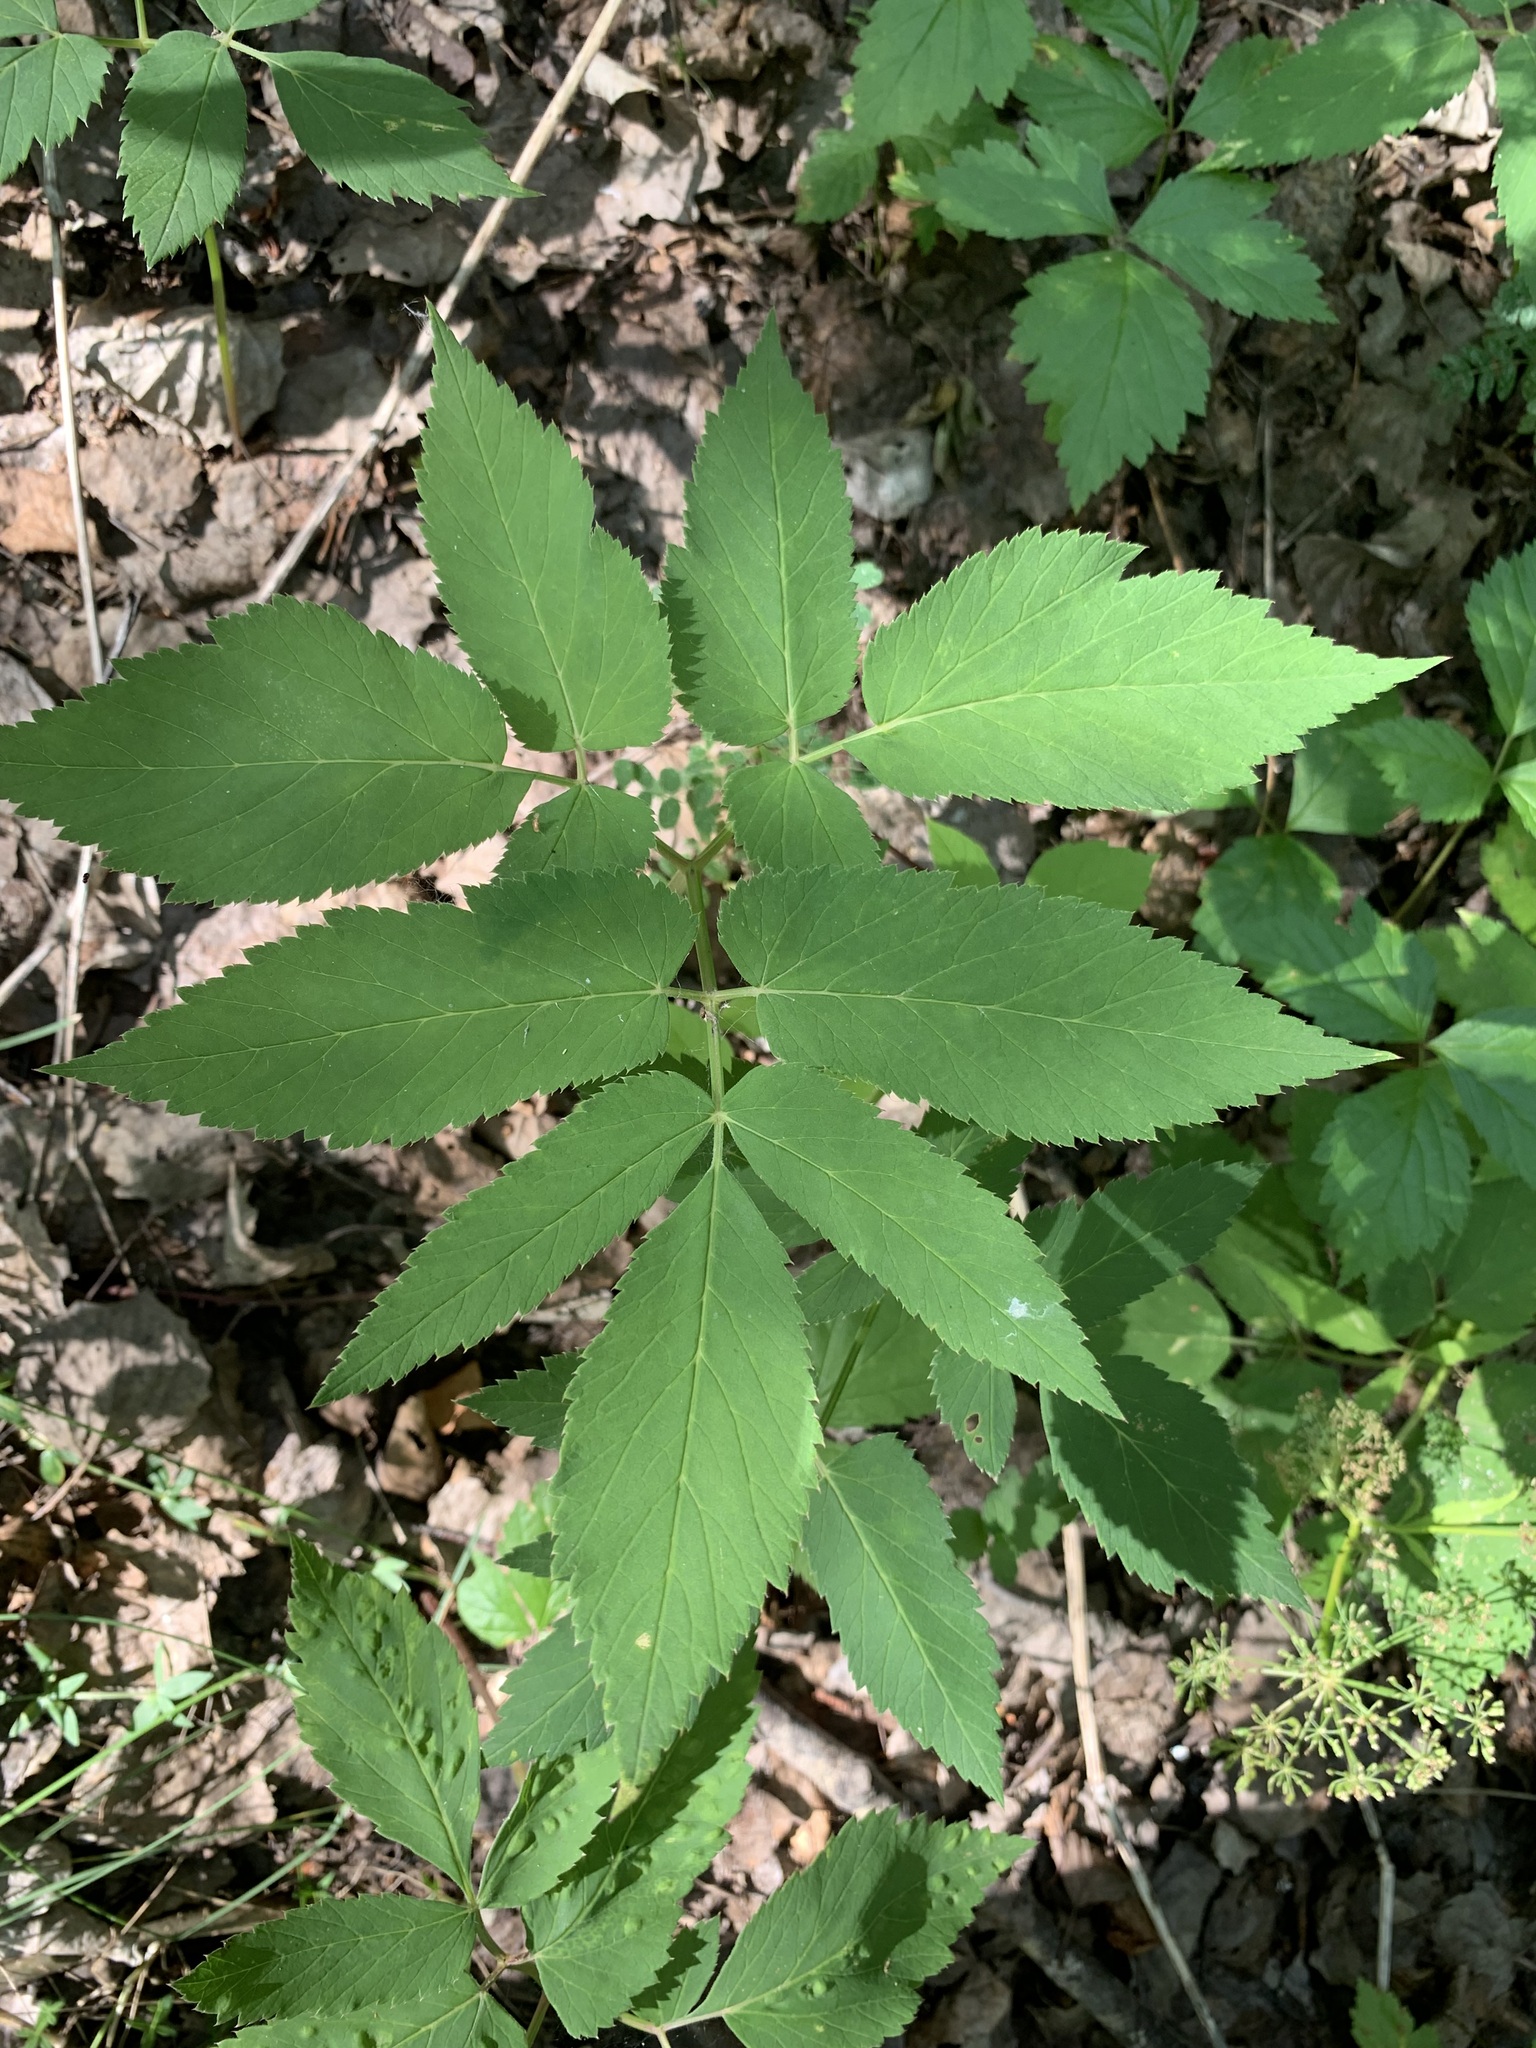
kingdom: Plantae
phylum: Tracheophyta
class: Magnoliopsida
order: Apiales
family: Apiaceae
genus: Aegopodium
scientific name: Aegopodium podagraria
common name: Ground-elder
